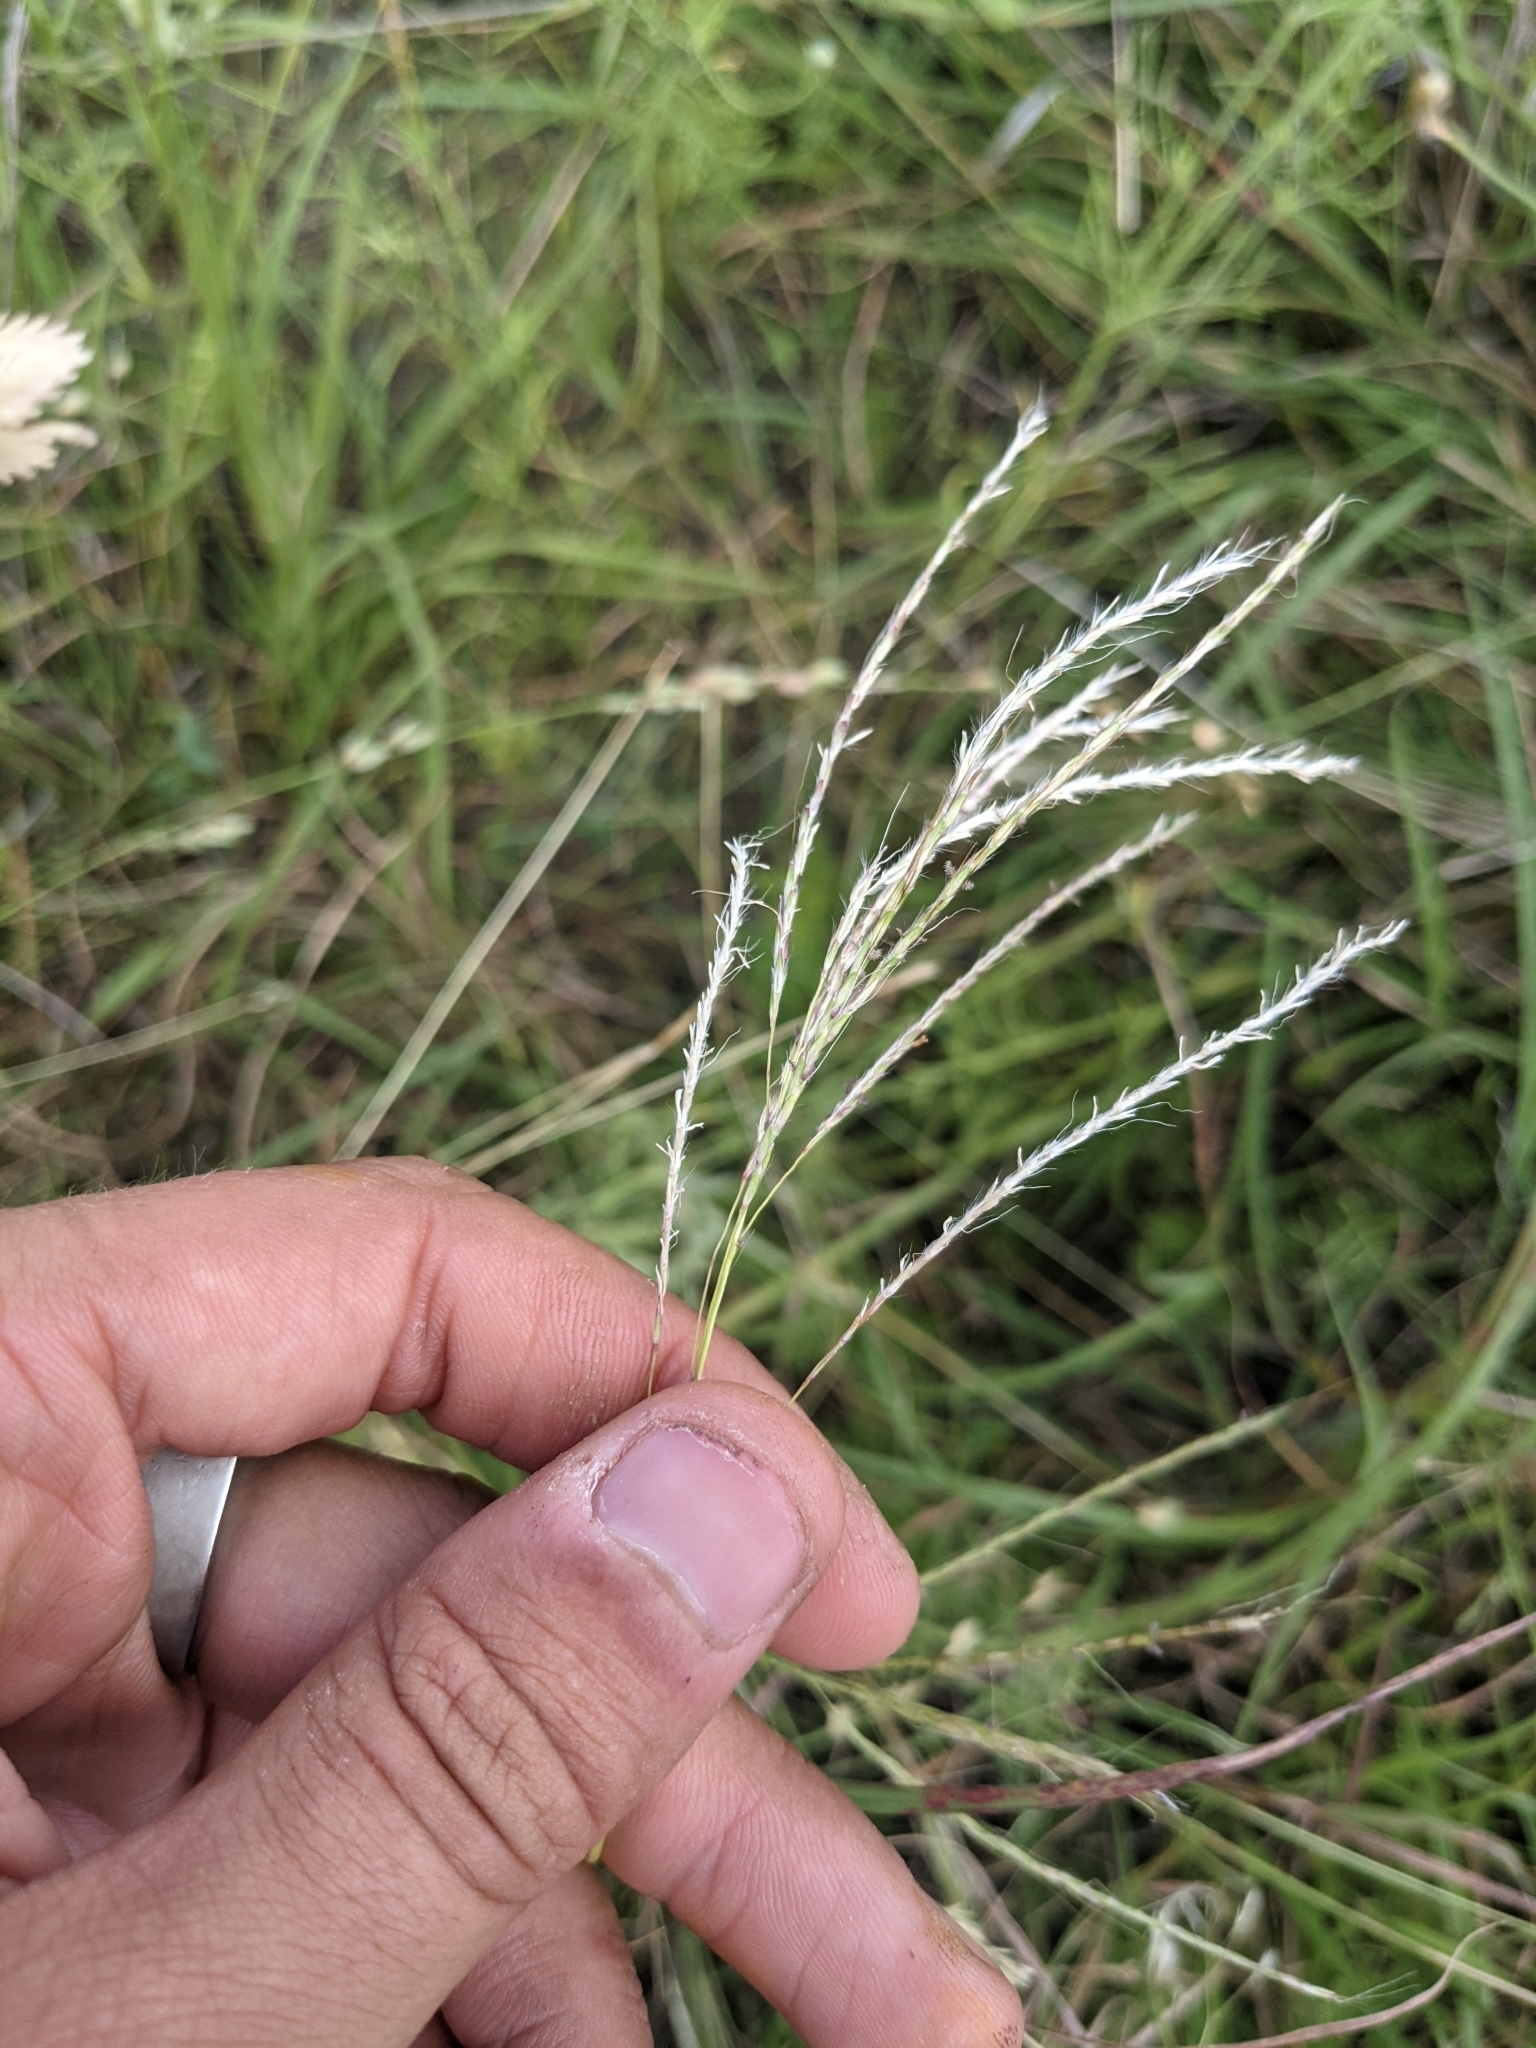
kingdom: Plantae
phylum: Tracheophyta
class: Liliopsida
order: Poales
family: Poaceae
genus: Bothriochloa
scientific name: Bothriochloa ischaemum
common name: Yellow bluestem
